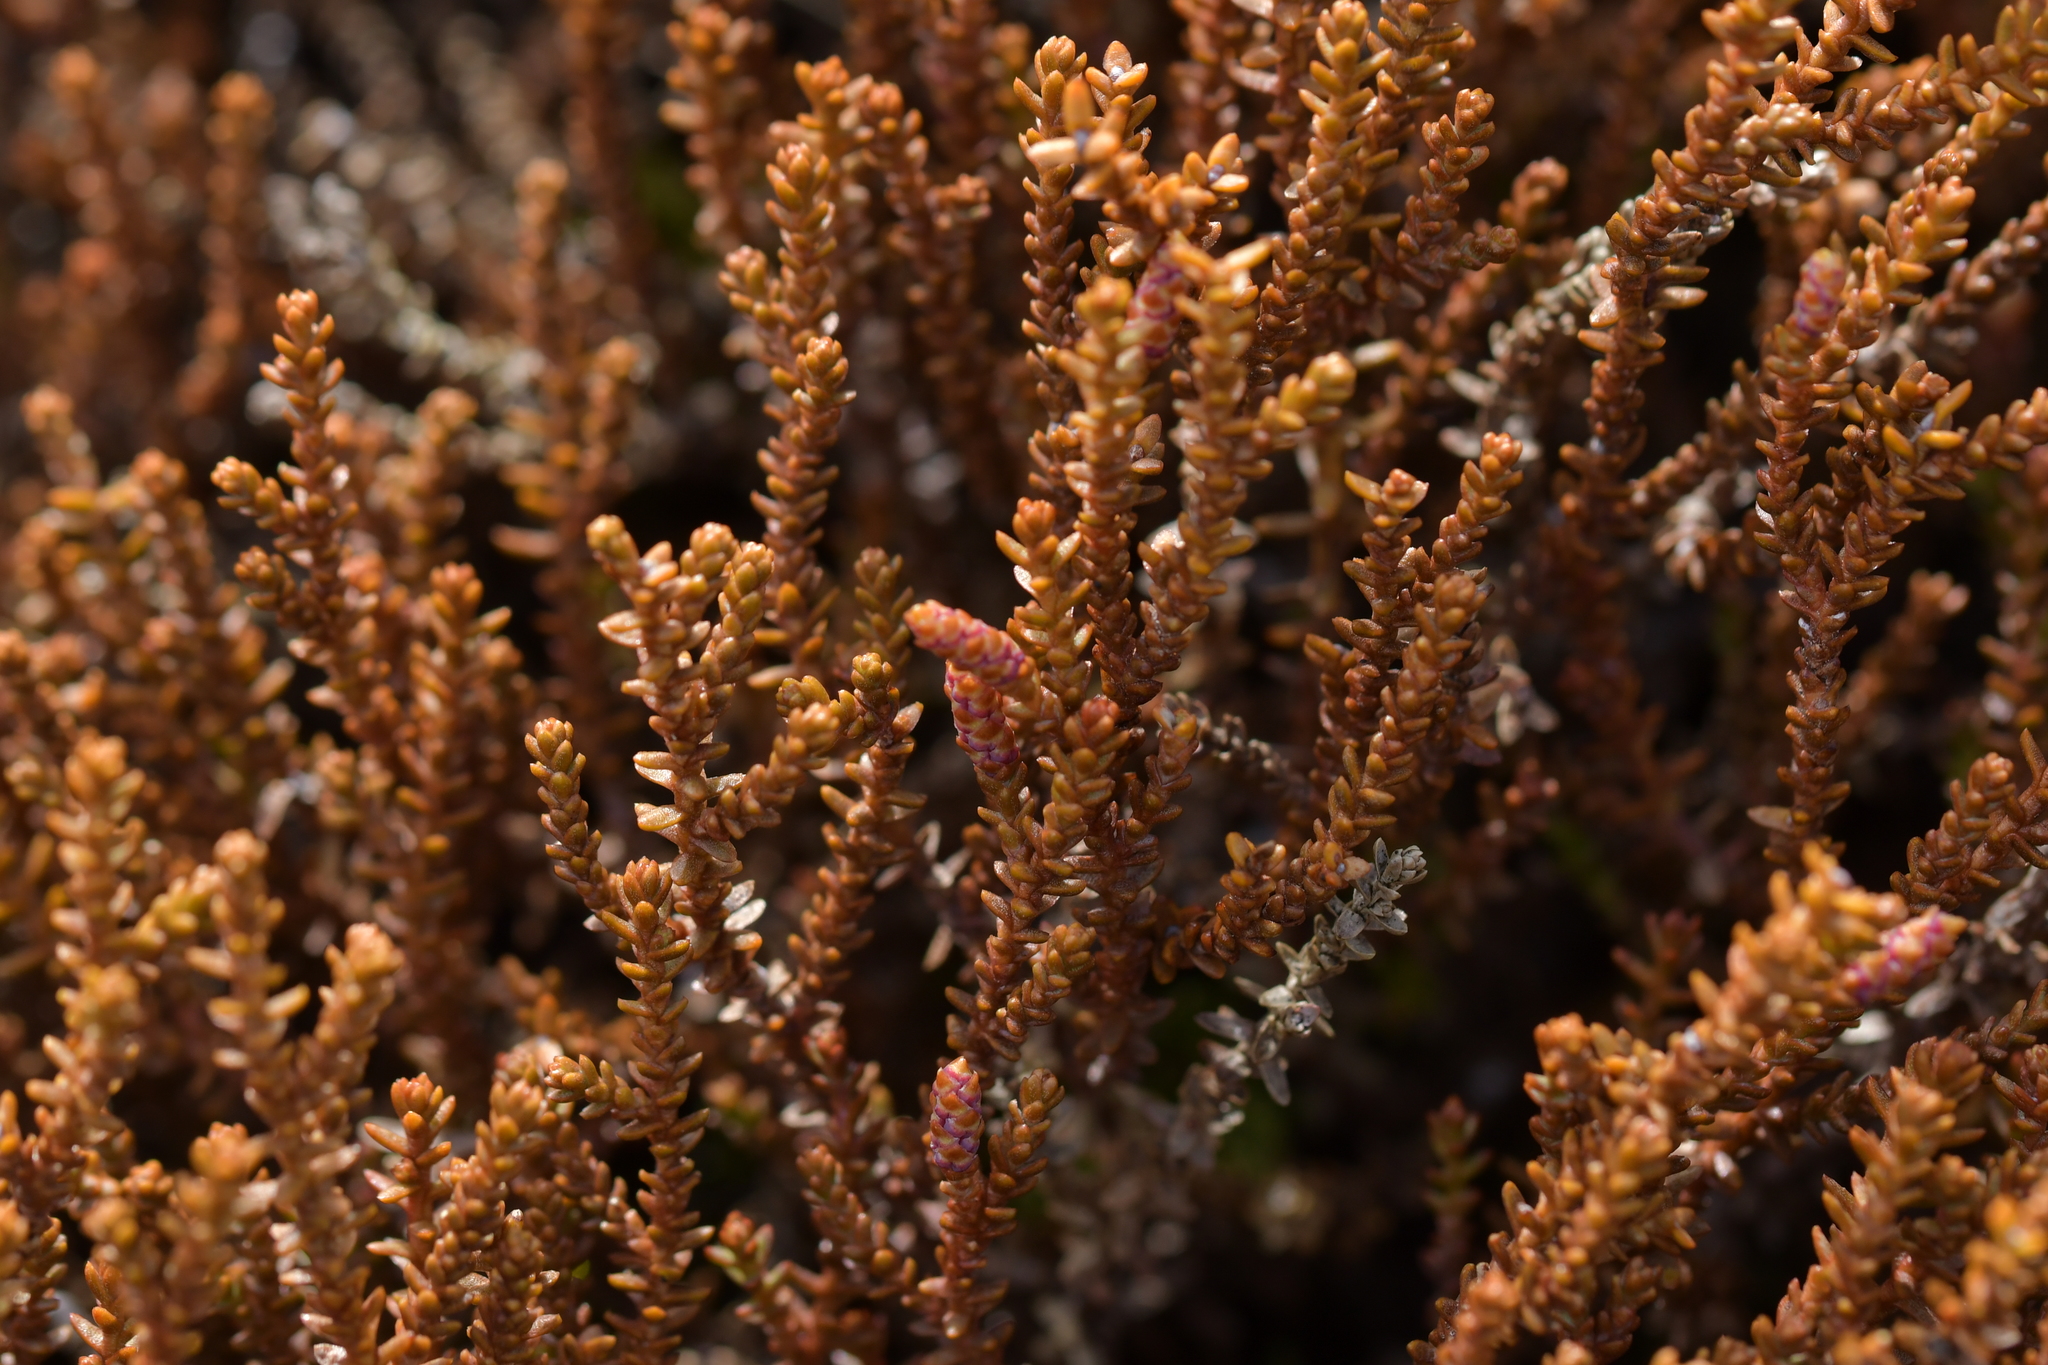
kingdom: Plantae
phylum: Tracheophyta
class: Pinopsida
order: Pinales
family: Podocarpaceae
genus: Lepidothamnus
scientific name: Lepidothamnus laxifolius
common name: Pygmy pine
